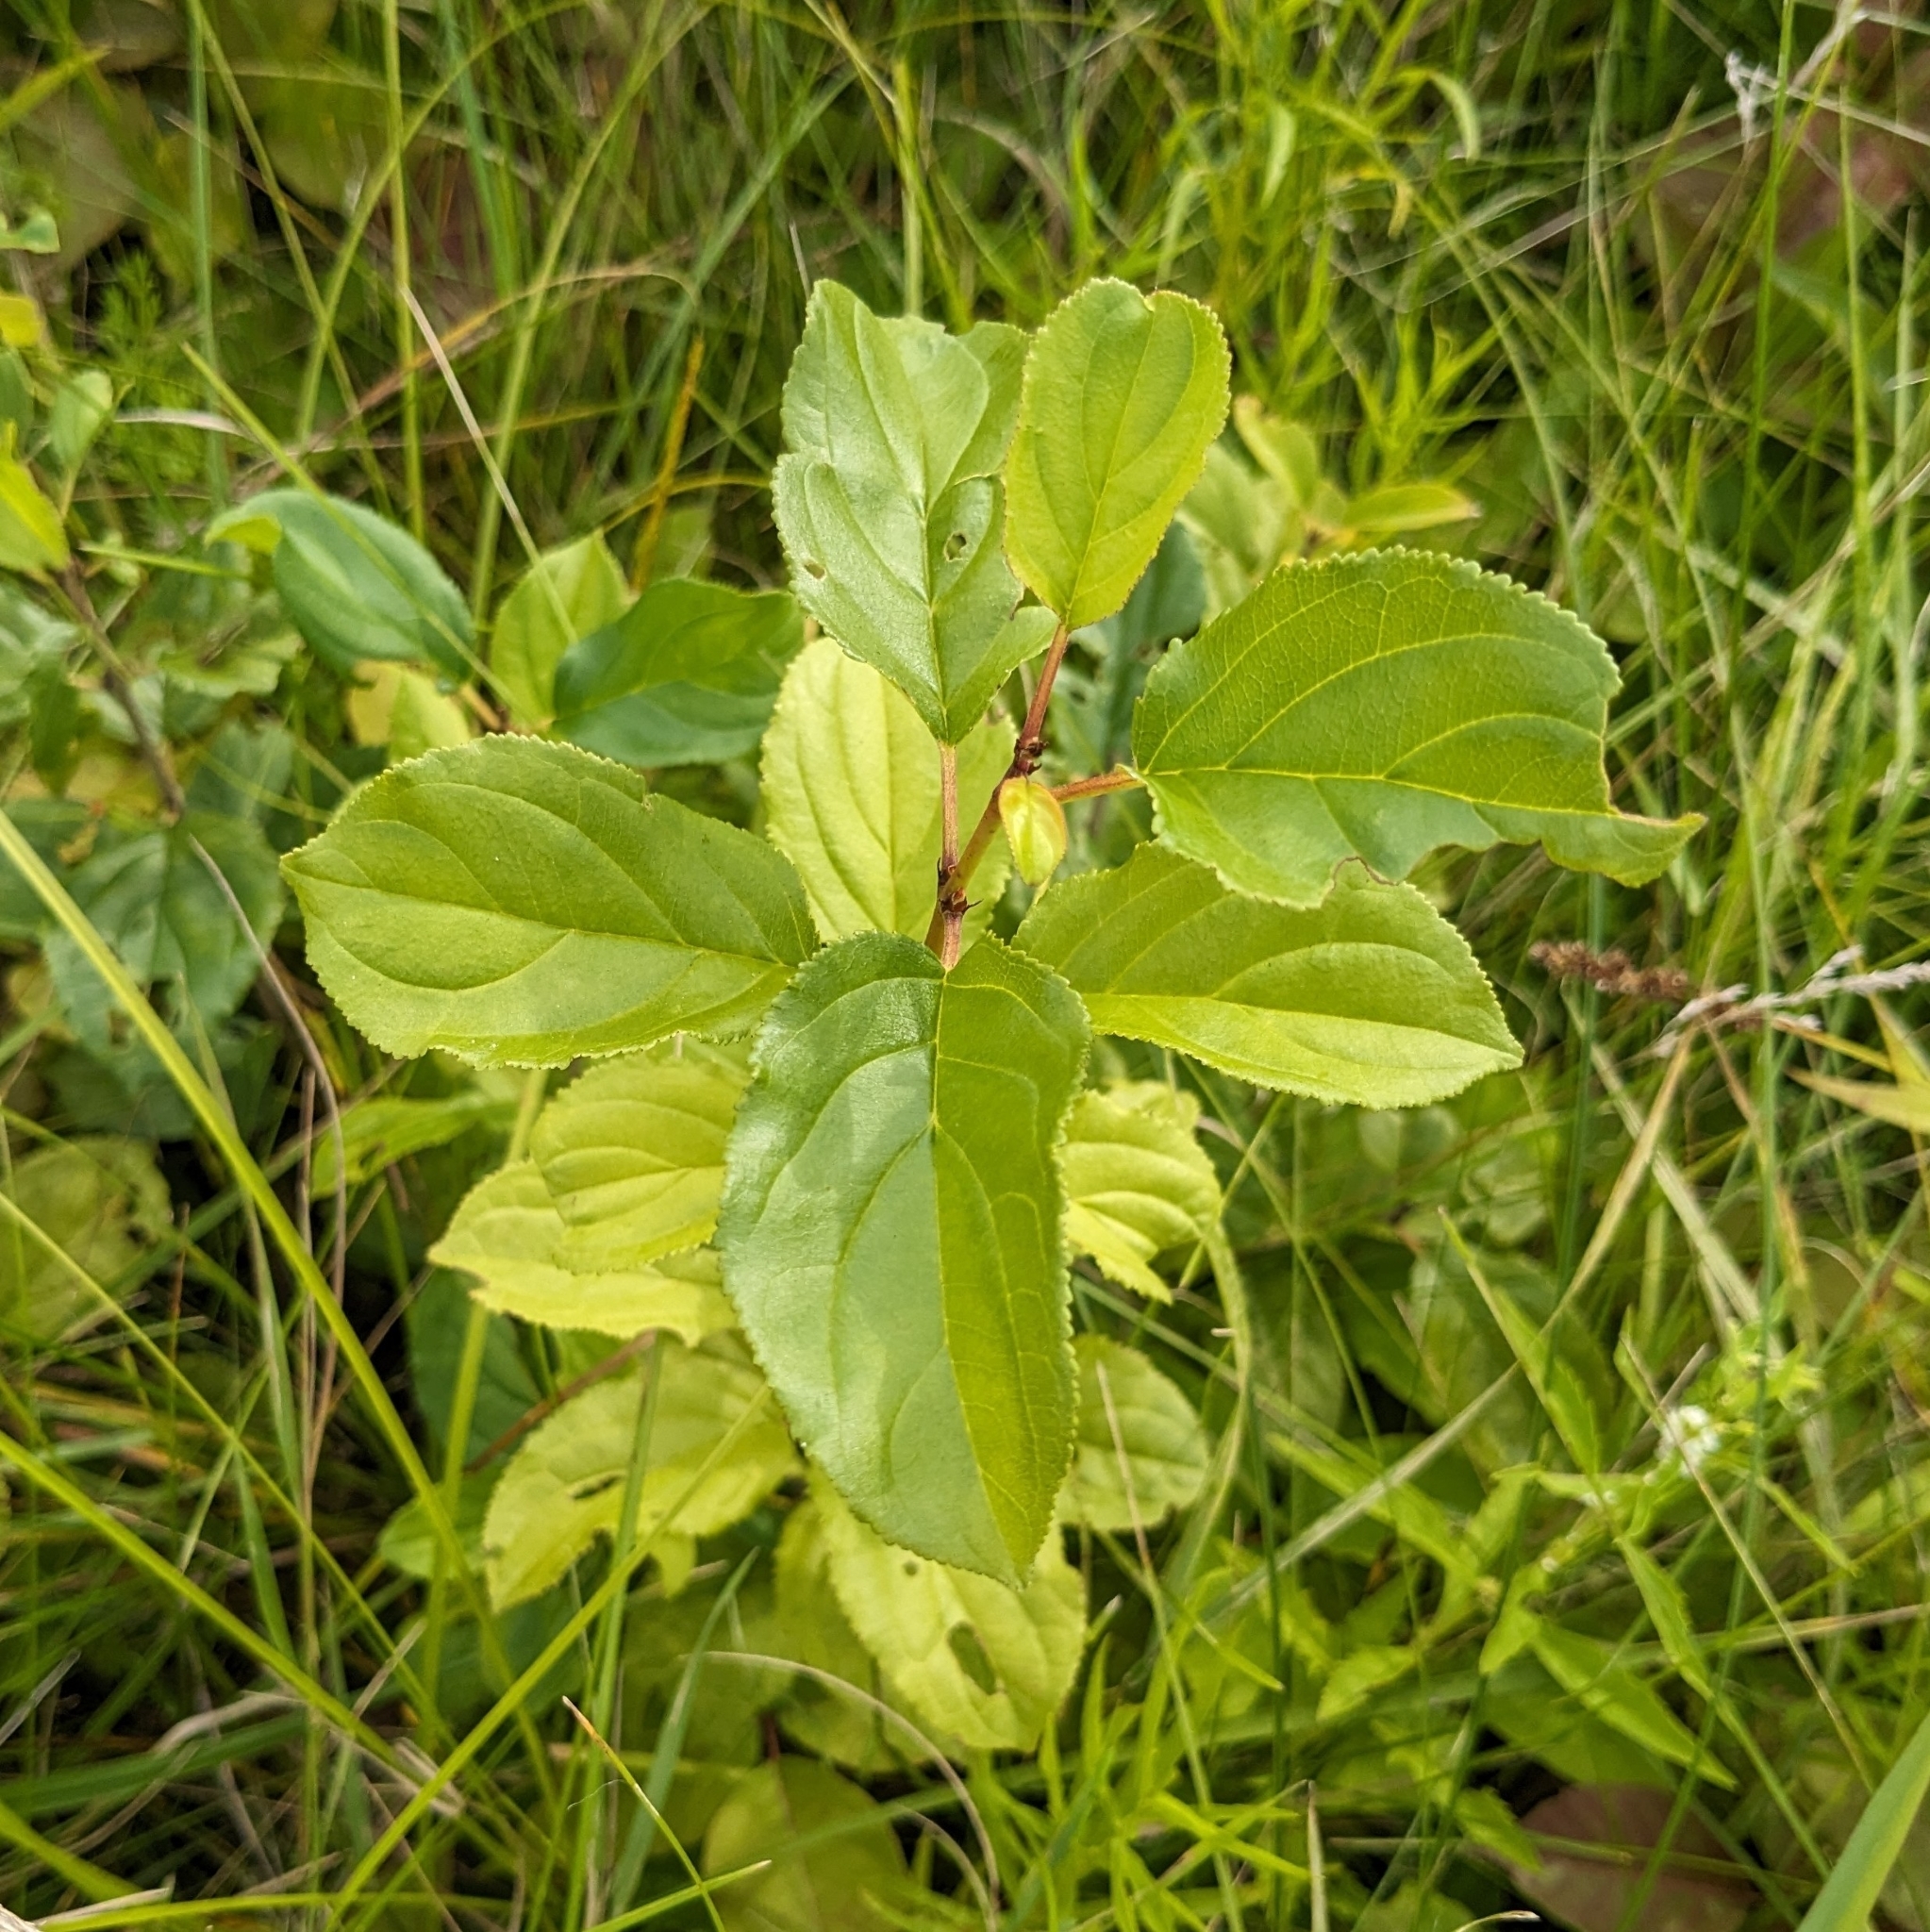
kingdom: Plantae
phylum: Tracheophyta
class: Magnoliopsida
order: Rosales
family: Rhamnaceae
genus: Rhamnus
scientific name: Rhamnus cathartica
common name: Common buckthorn
